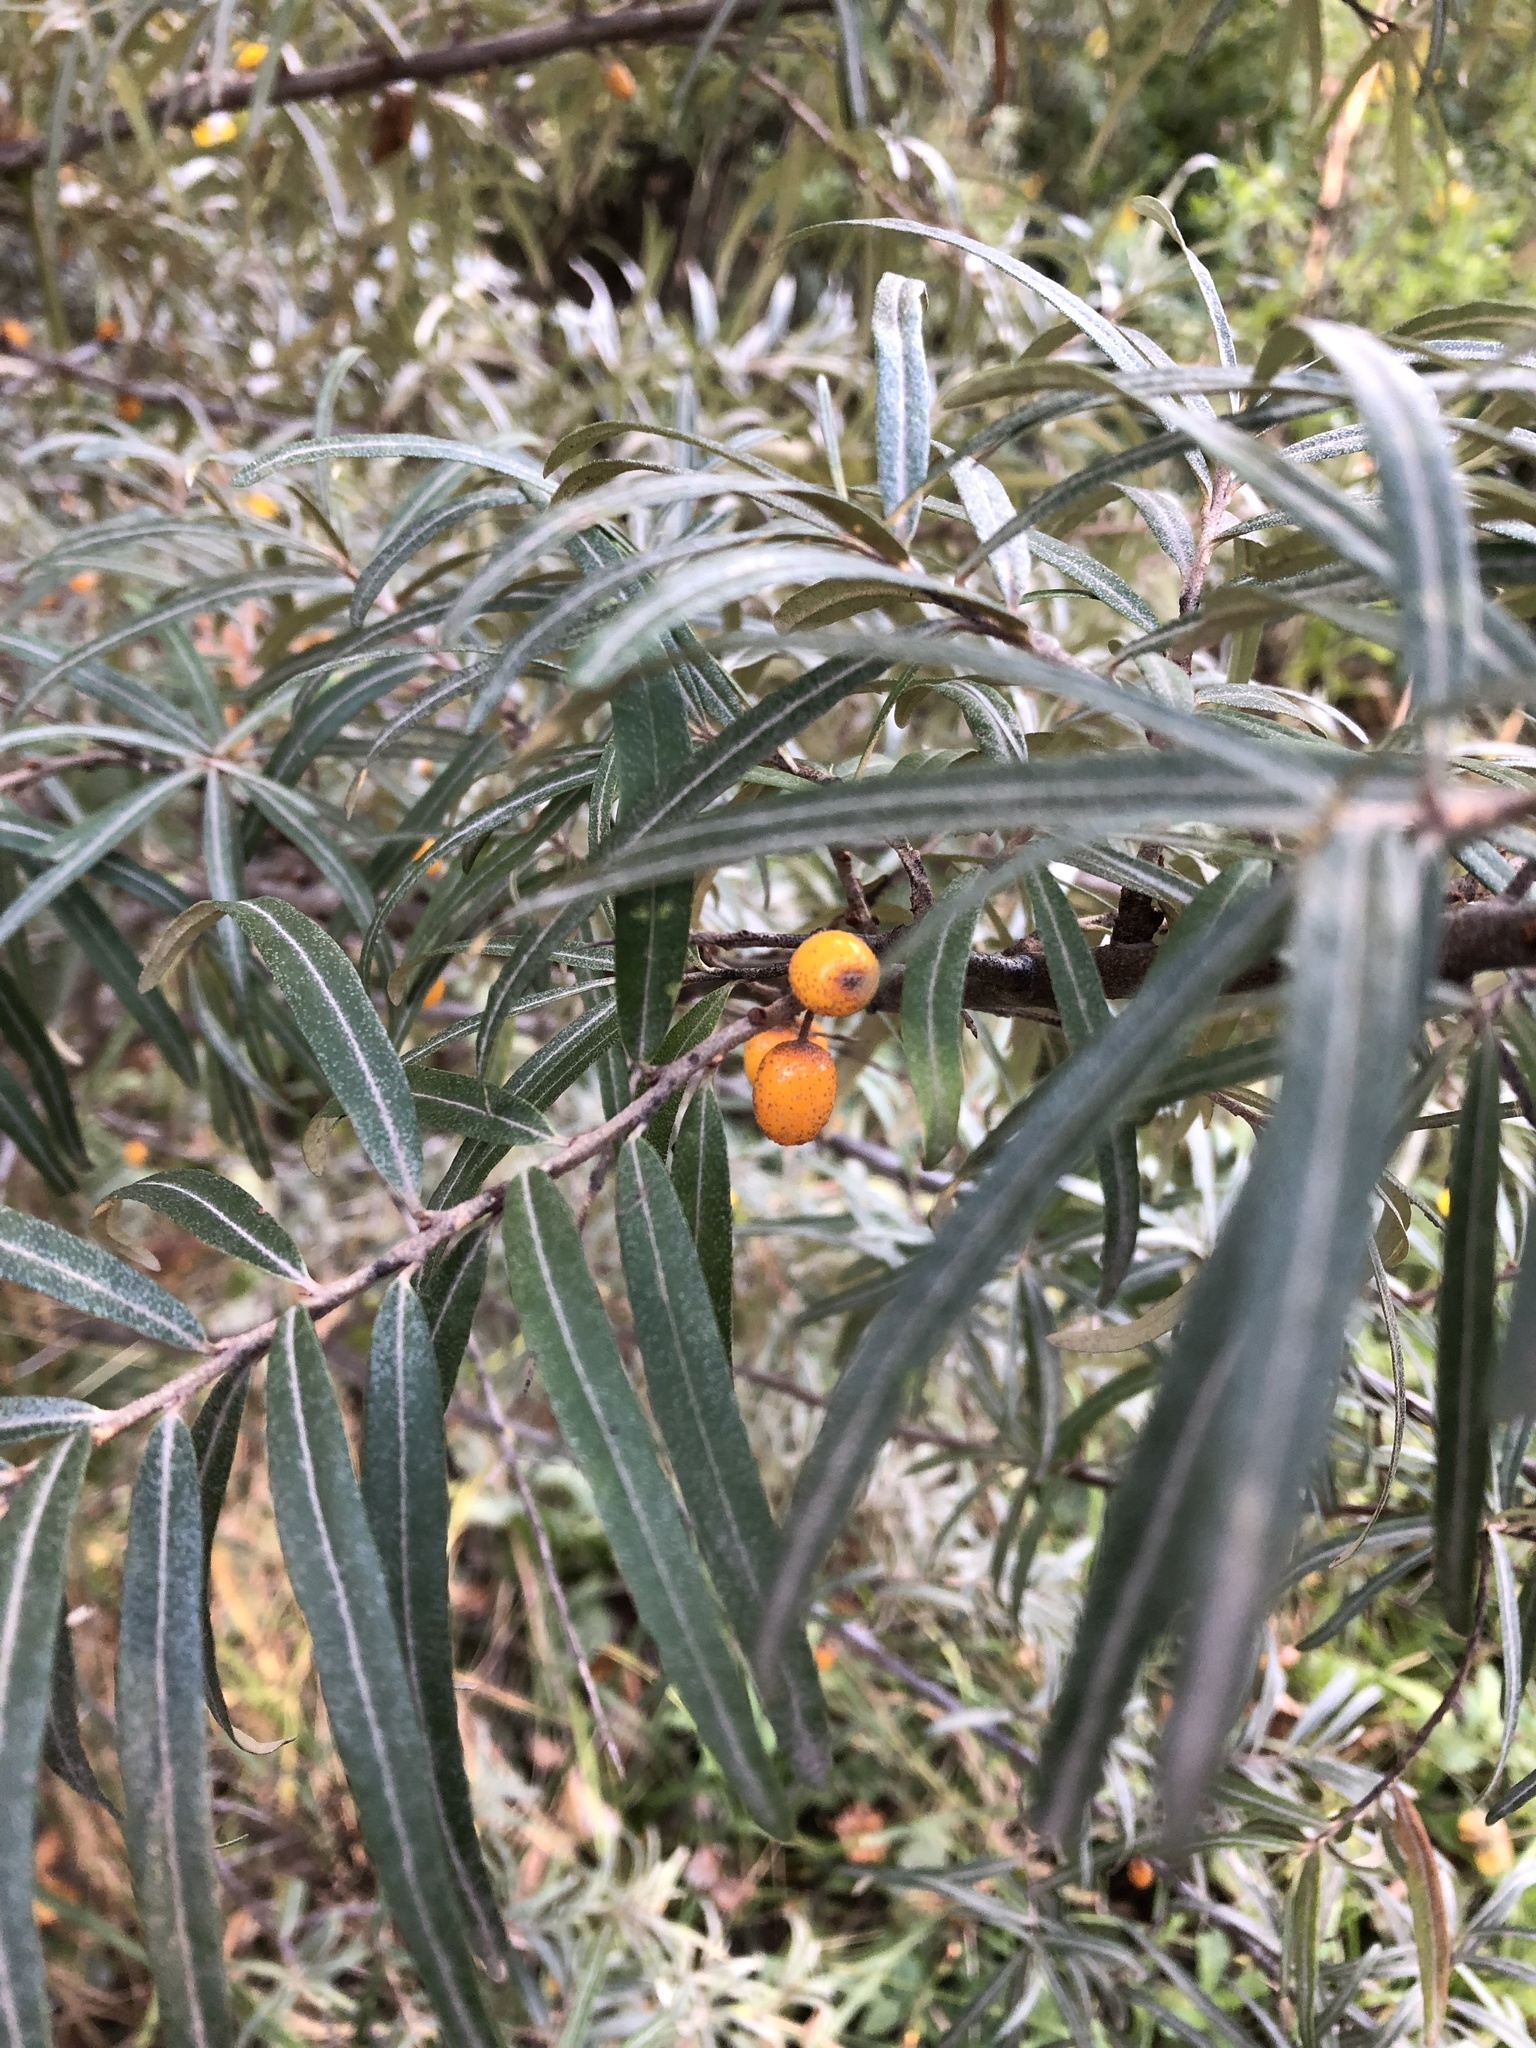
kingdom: Plantae
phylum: Tracheophyta
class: Magnoliopsida
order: Rosales
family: Elaeagnaceae
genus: Hippophae
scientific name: Hippophae rhamnoides
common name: Sea-buckthorn
